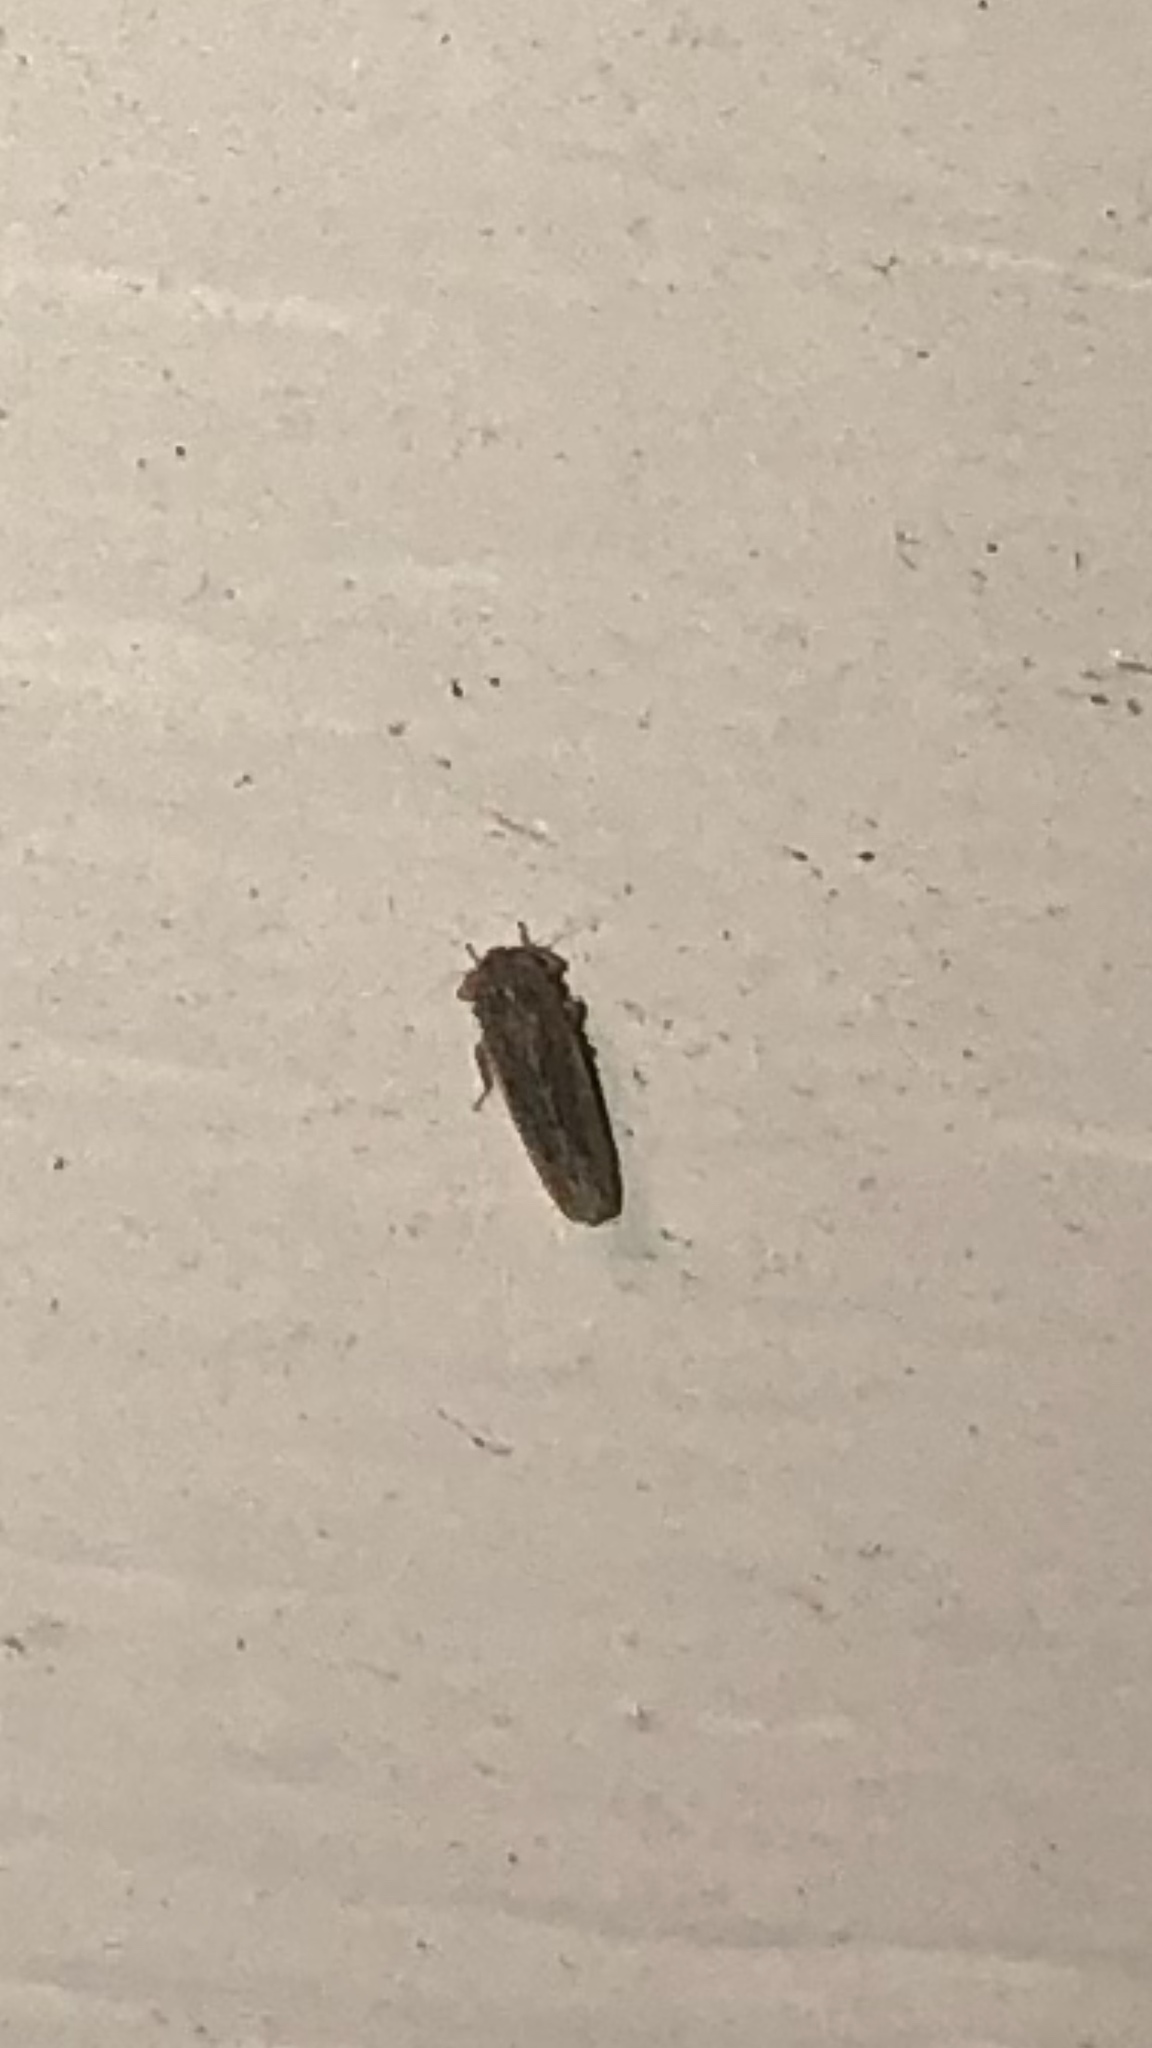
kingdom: Animalia
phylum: Arthropoda
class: Insecta
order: Hemiptera
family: Cicadellidae
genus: Graminella
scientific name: Graminella sonora
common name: Lesser lawn leafhopper
